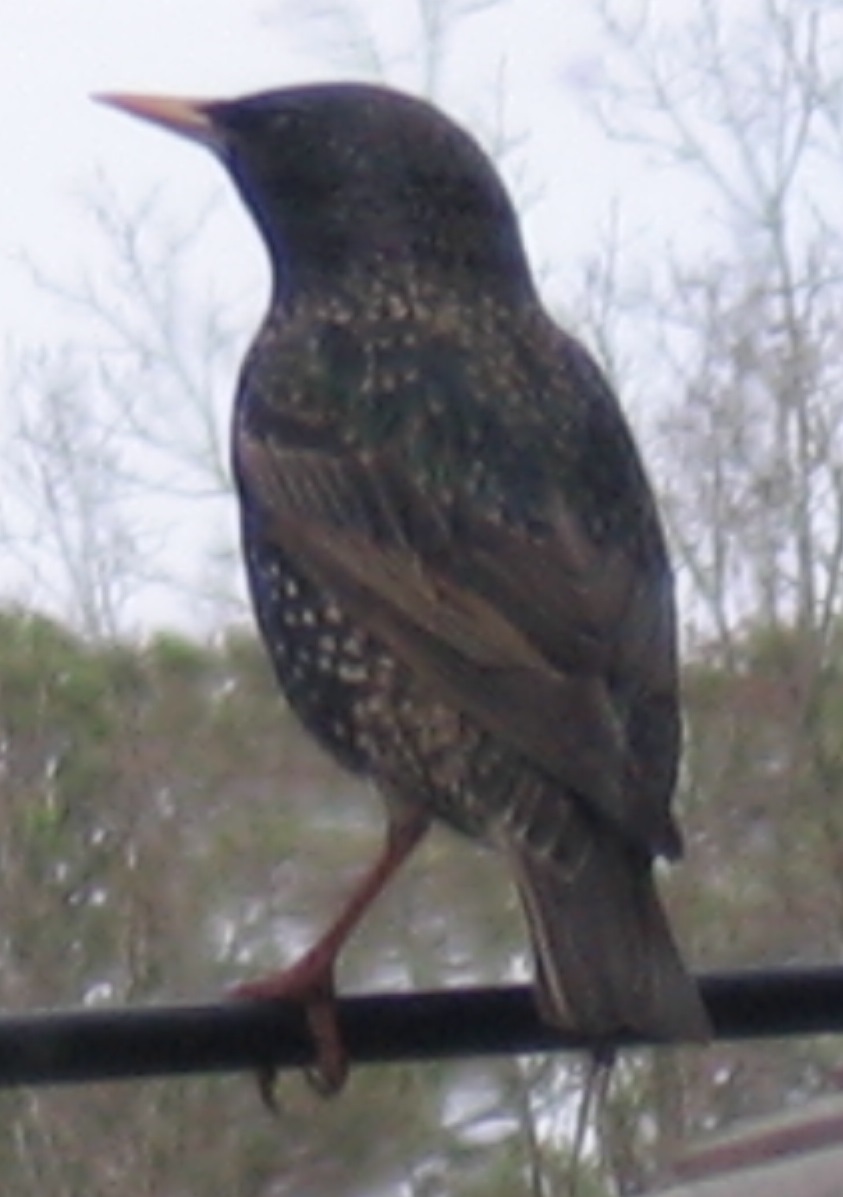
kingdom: Animalia
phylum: Chordata
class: Aves
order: Passeriformes
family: Sturnidae
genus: Sturnus
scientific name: Sturnus vulgaris
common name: Common starling
